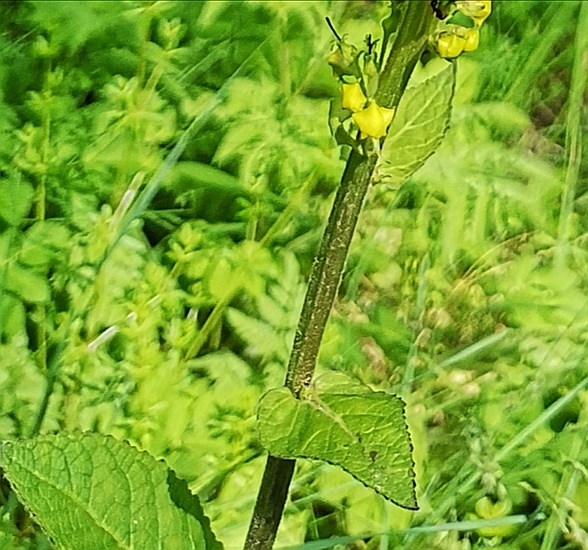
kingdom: Plantae
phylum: Tracheophyta
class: Magnoliopsida
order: Lamiales
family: Scrophulariaceae
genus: Verbascum
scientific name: Verbascum nigrum
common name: Dark mullein
